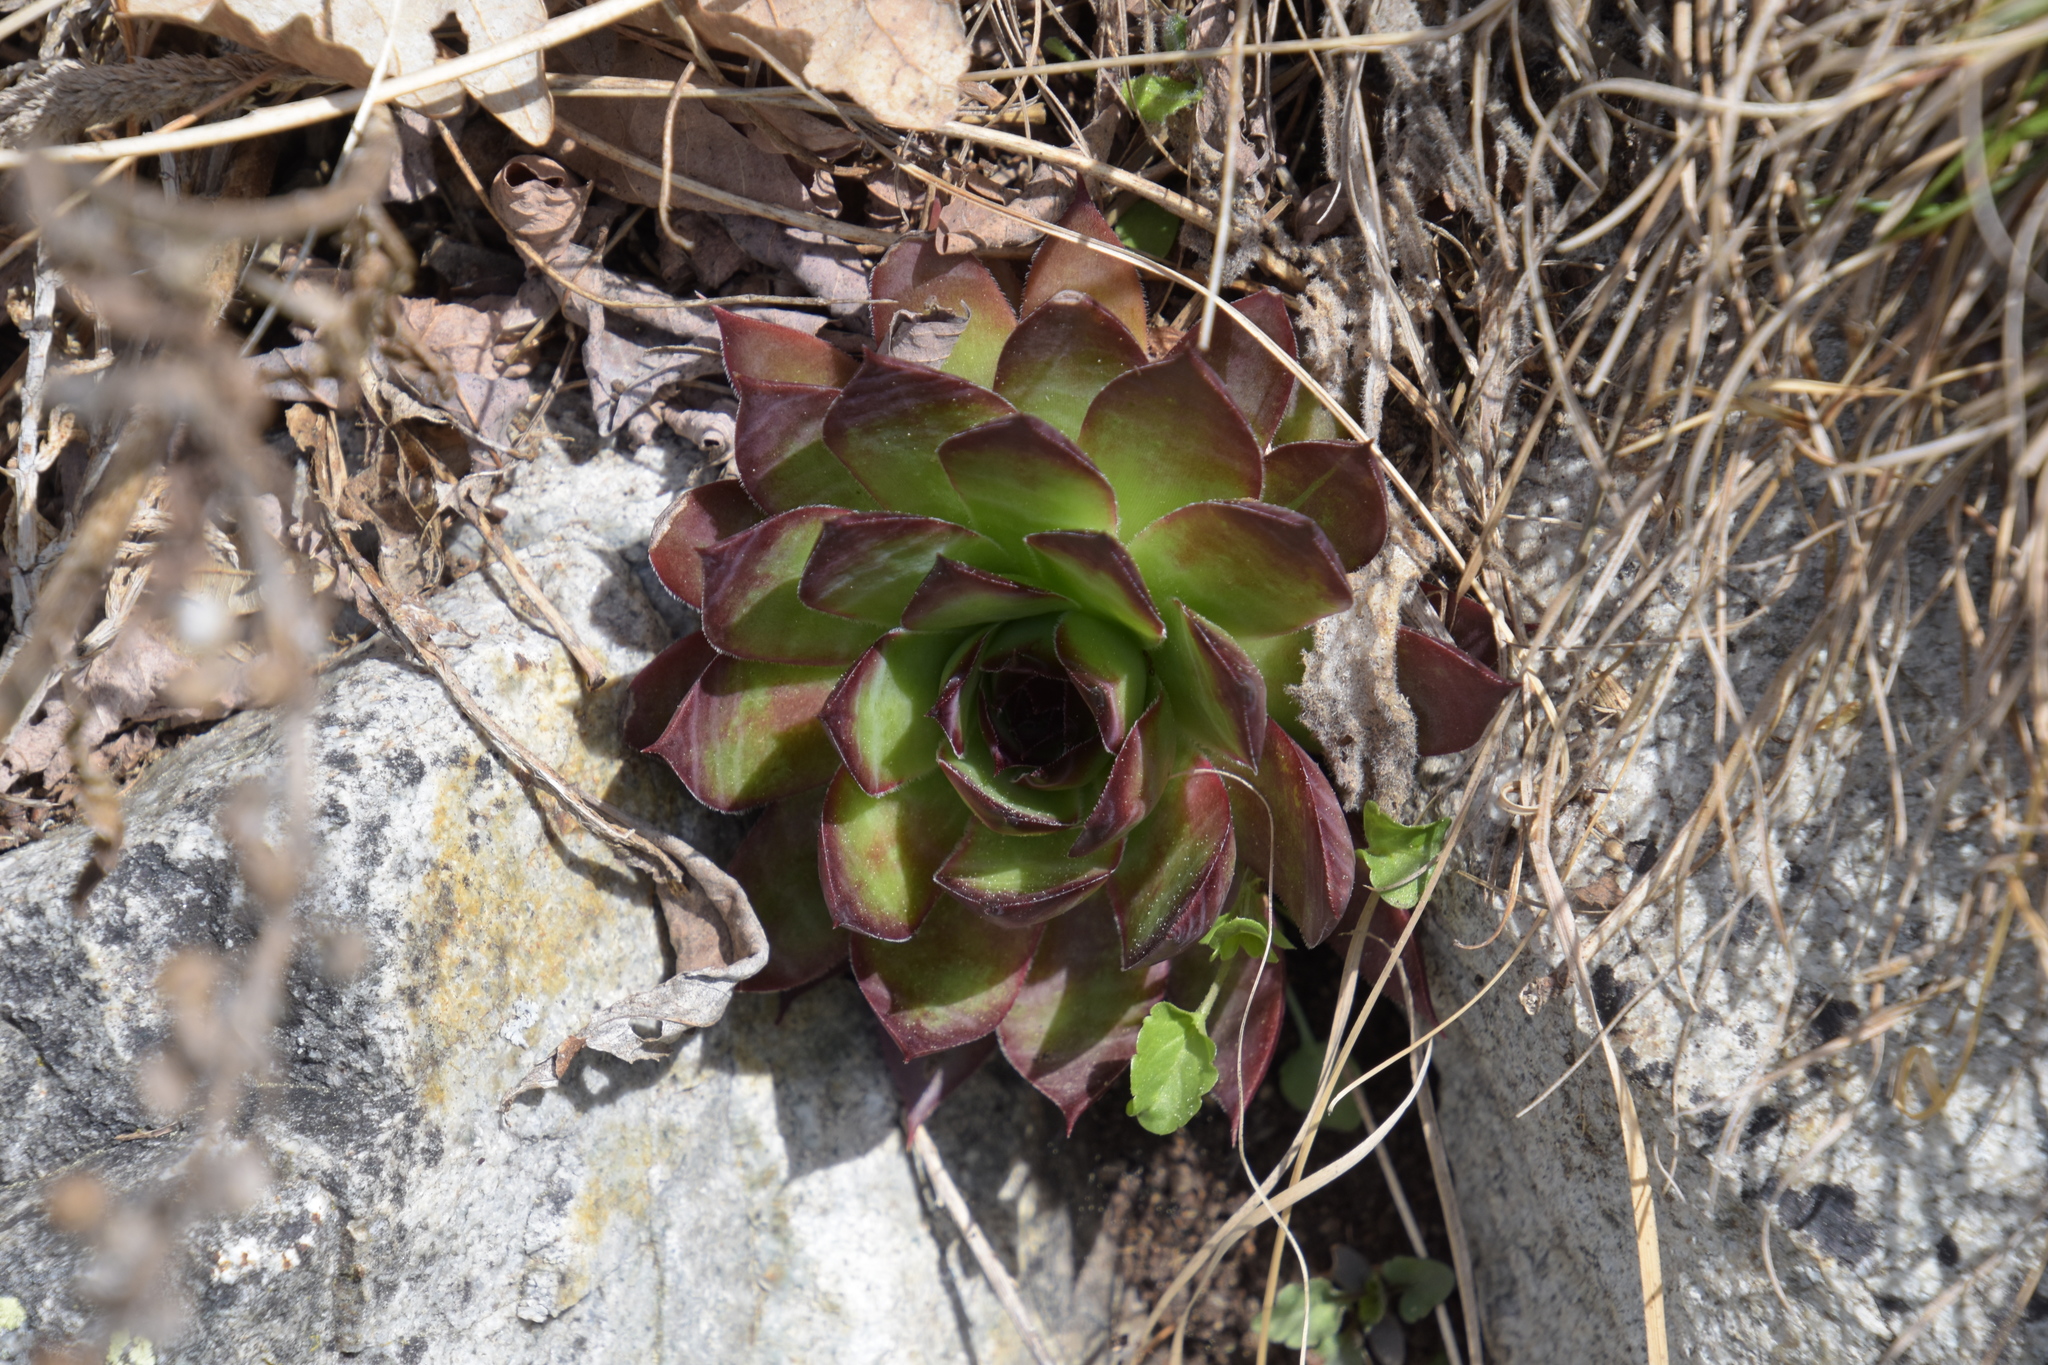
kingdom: Plantae
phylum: Tracheophyta
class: Magnoliopsida
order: Saxifragales
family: Crassulaceae
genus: Sempervivum
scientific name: Sempervivum tectorum
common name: House-leek
